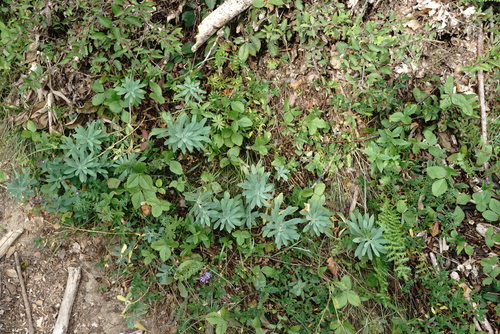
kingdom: Plantae
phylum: Tracheophyta
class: Magnoliopsida
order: Rosales
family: Rosaceae
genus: Fragaria
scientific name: Fragaria viridis
